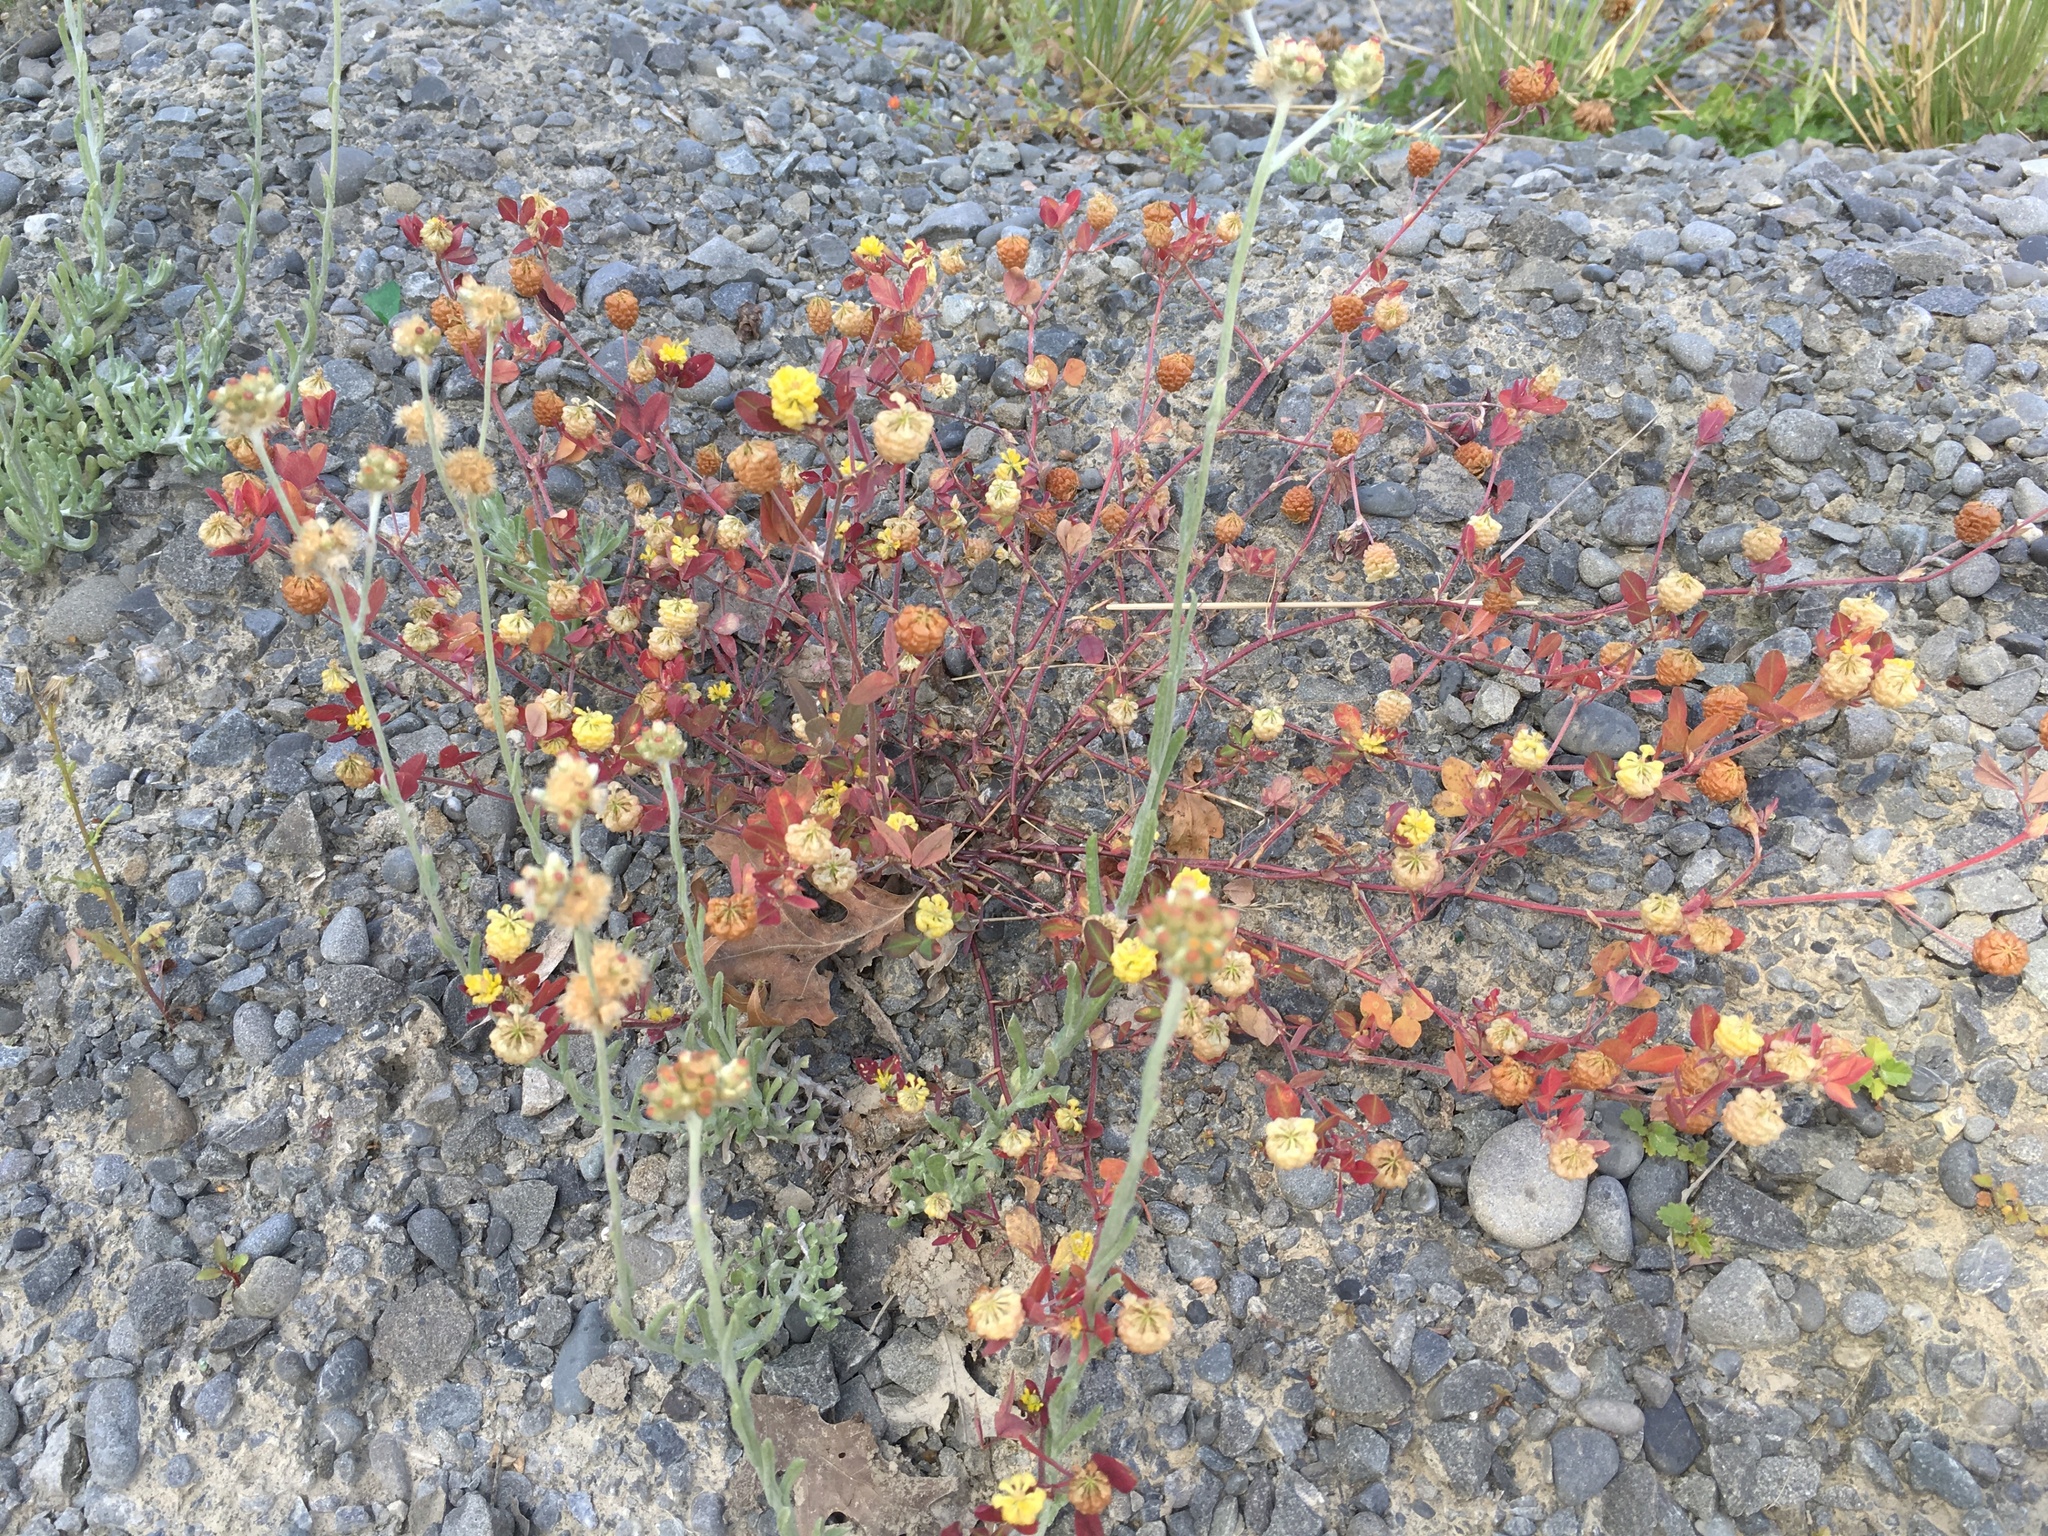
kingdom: Plantae
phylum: Tracheophyta
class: Magnoliopsida
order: Fabales
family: Fabaceae
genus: Trifolium
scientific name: Trifolium campestre
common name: Field clover
